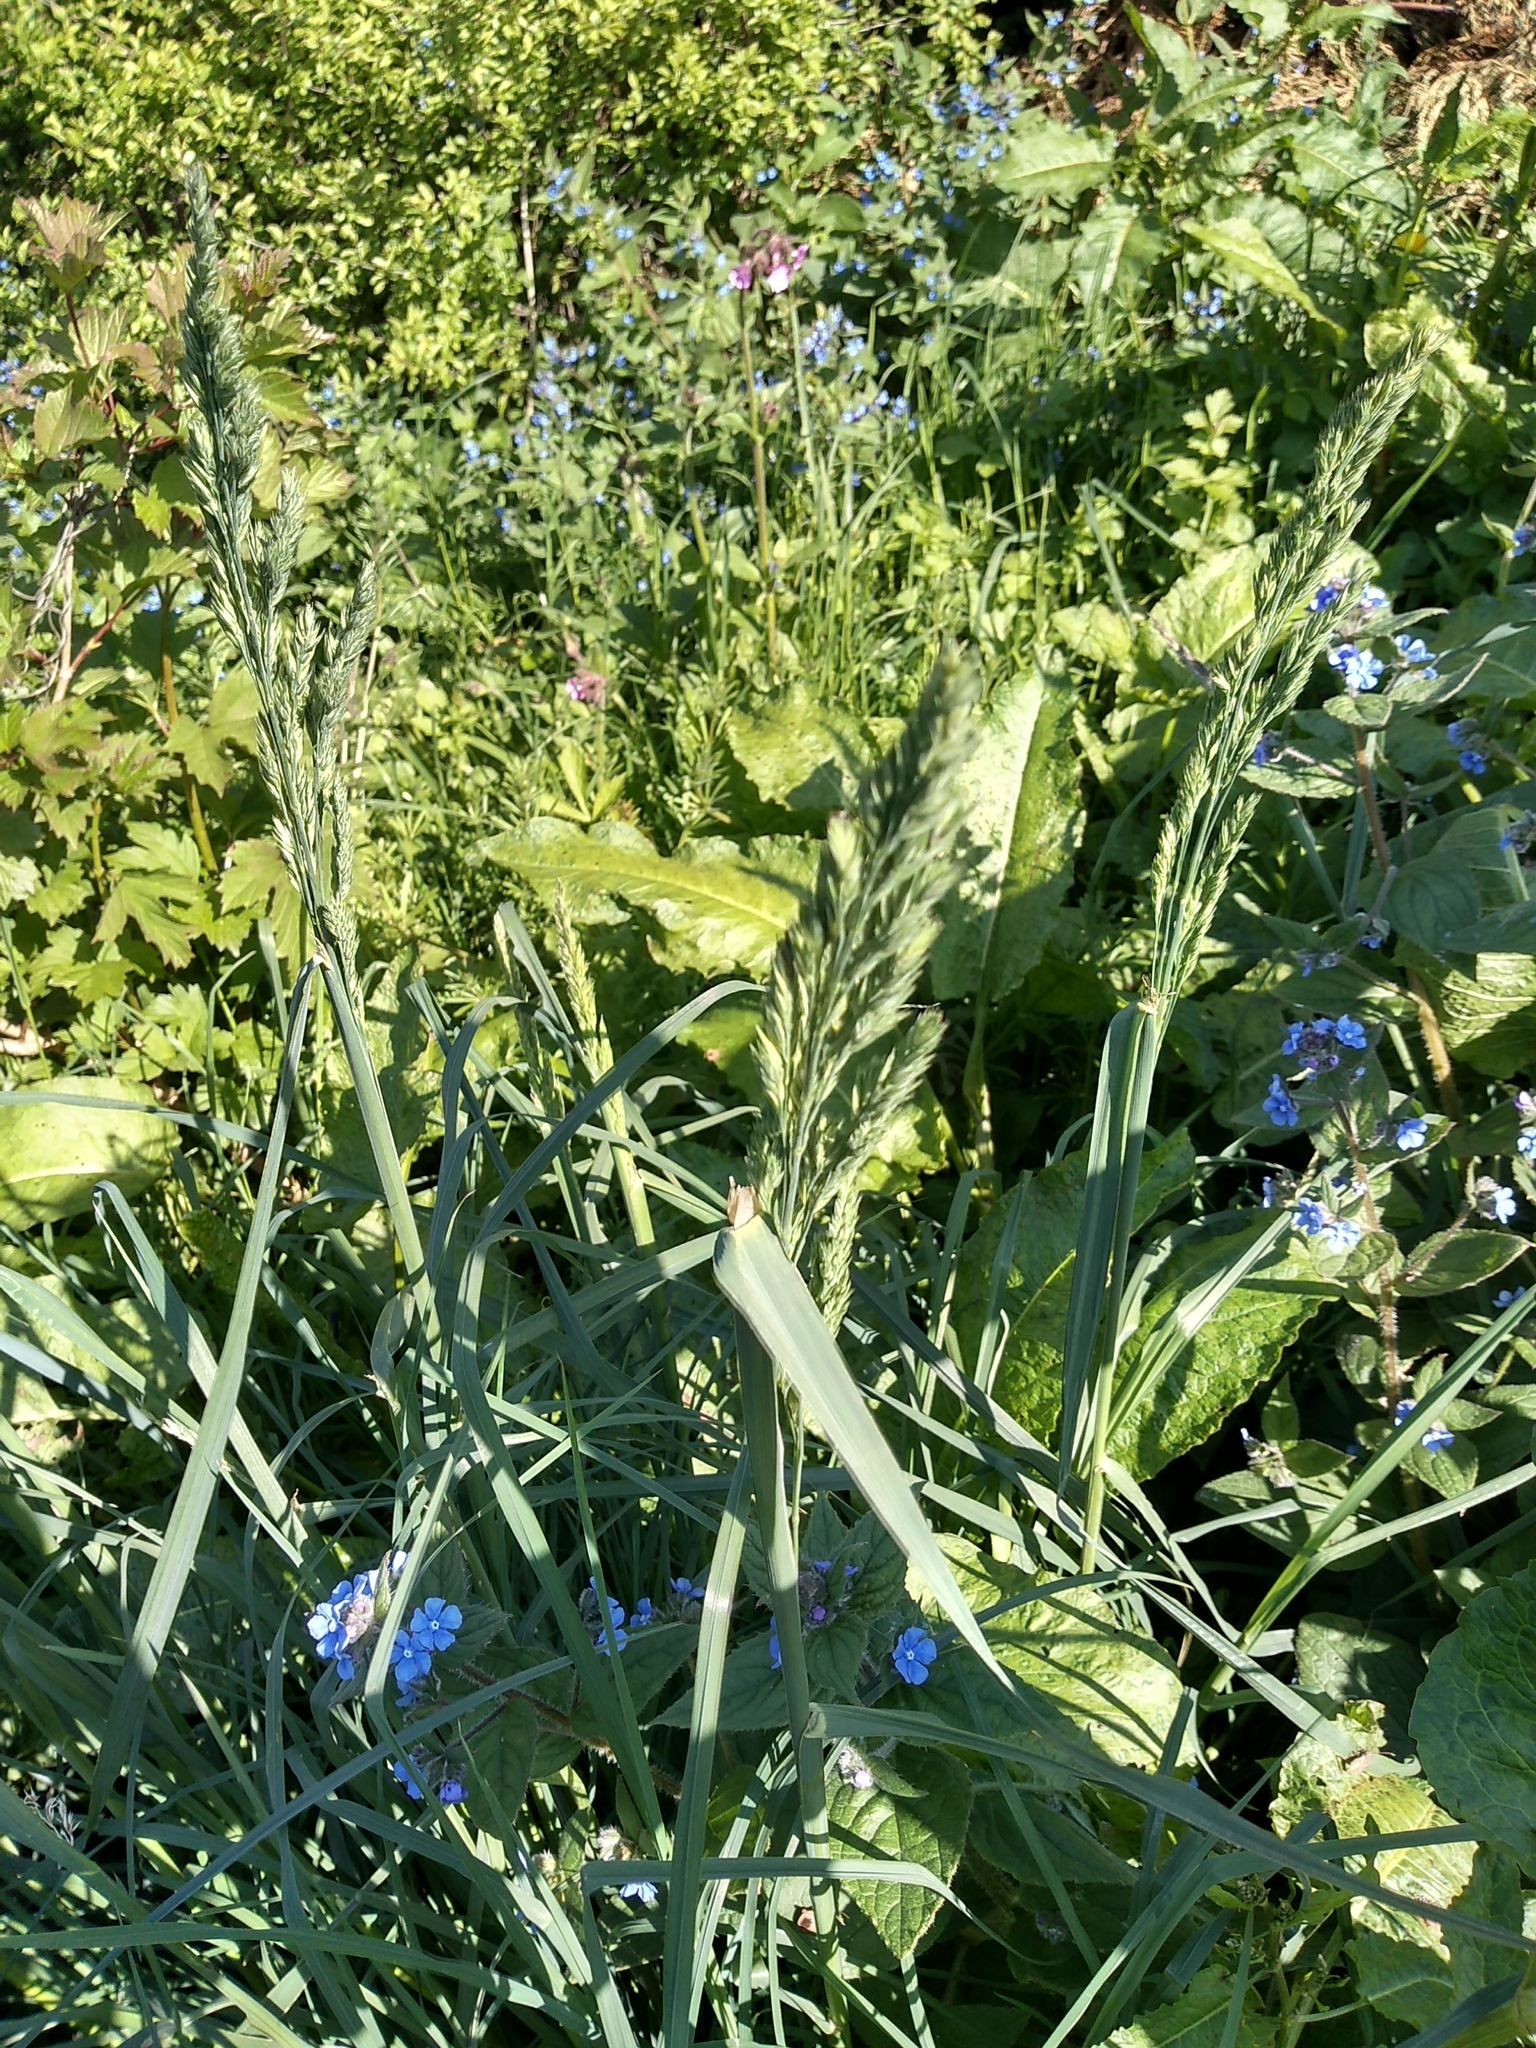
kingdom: Plantae
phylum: Tracheophyta
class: Liliopsida
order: Poales
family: Poaceae
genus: Dactylis
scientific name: Dactylis glomerata
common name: Orchardgrass
